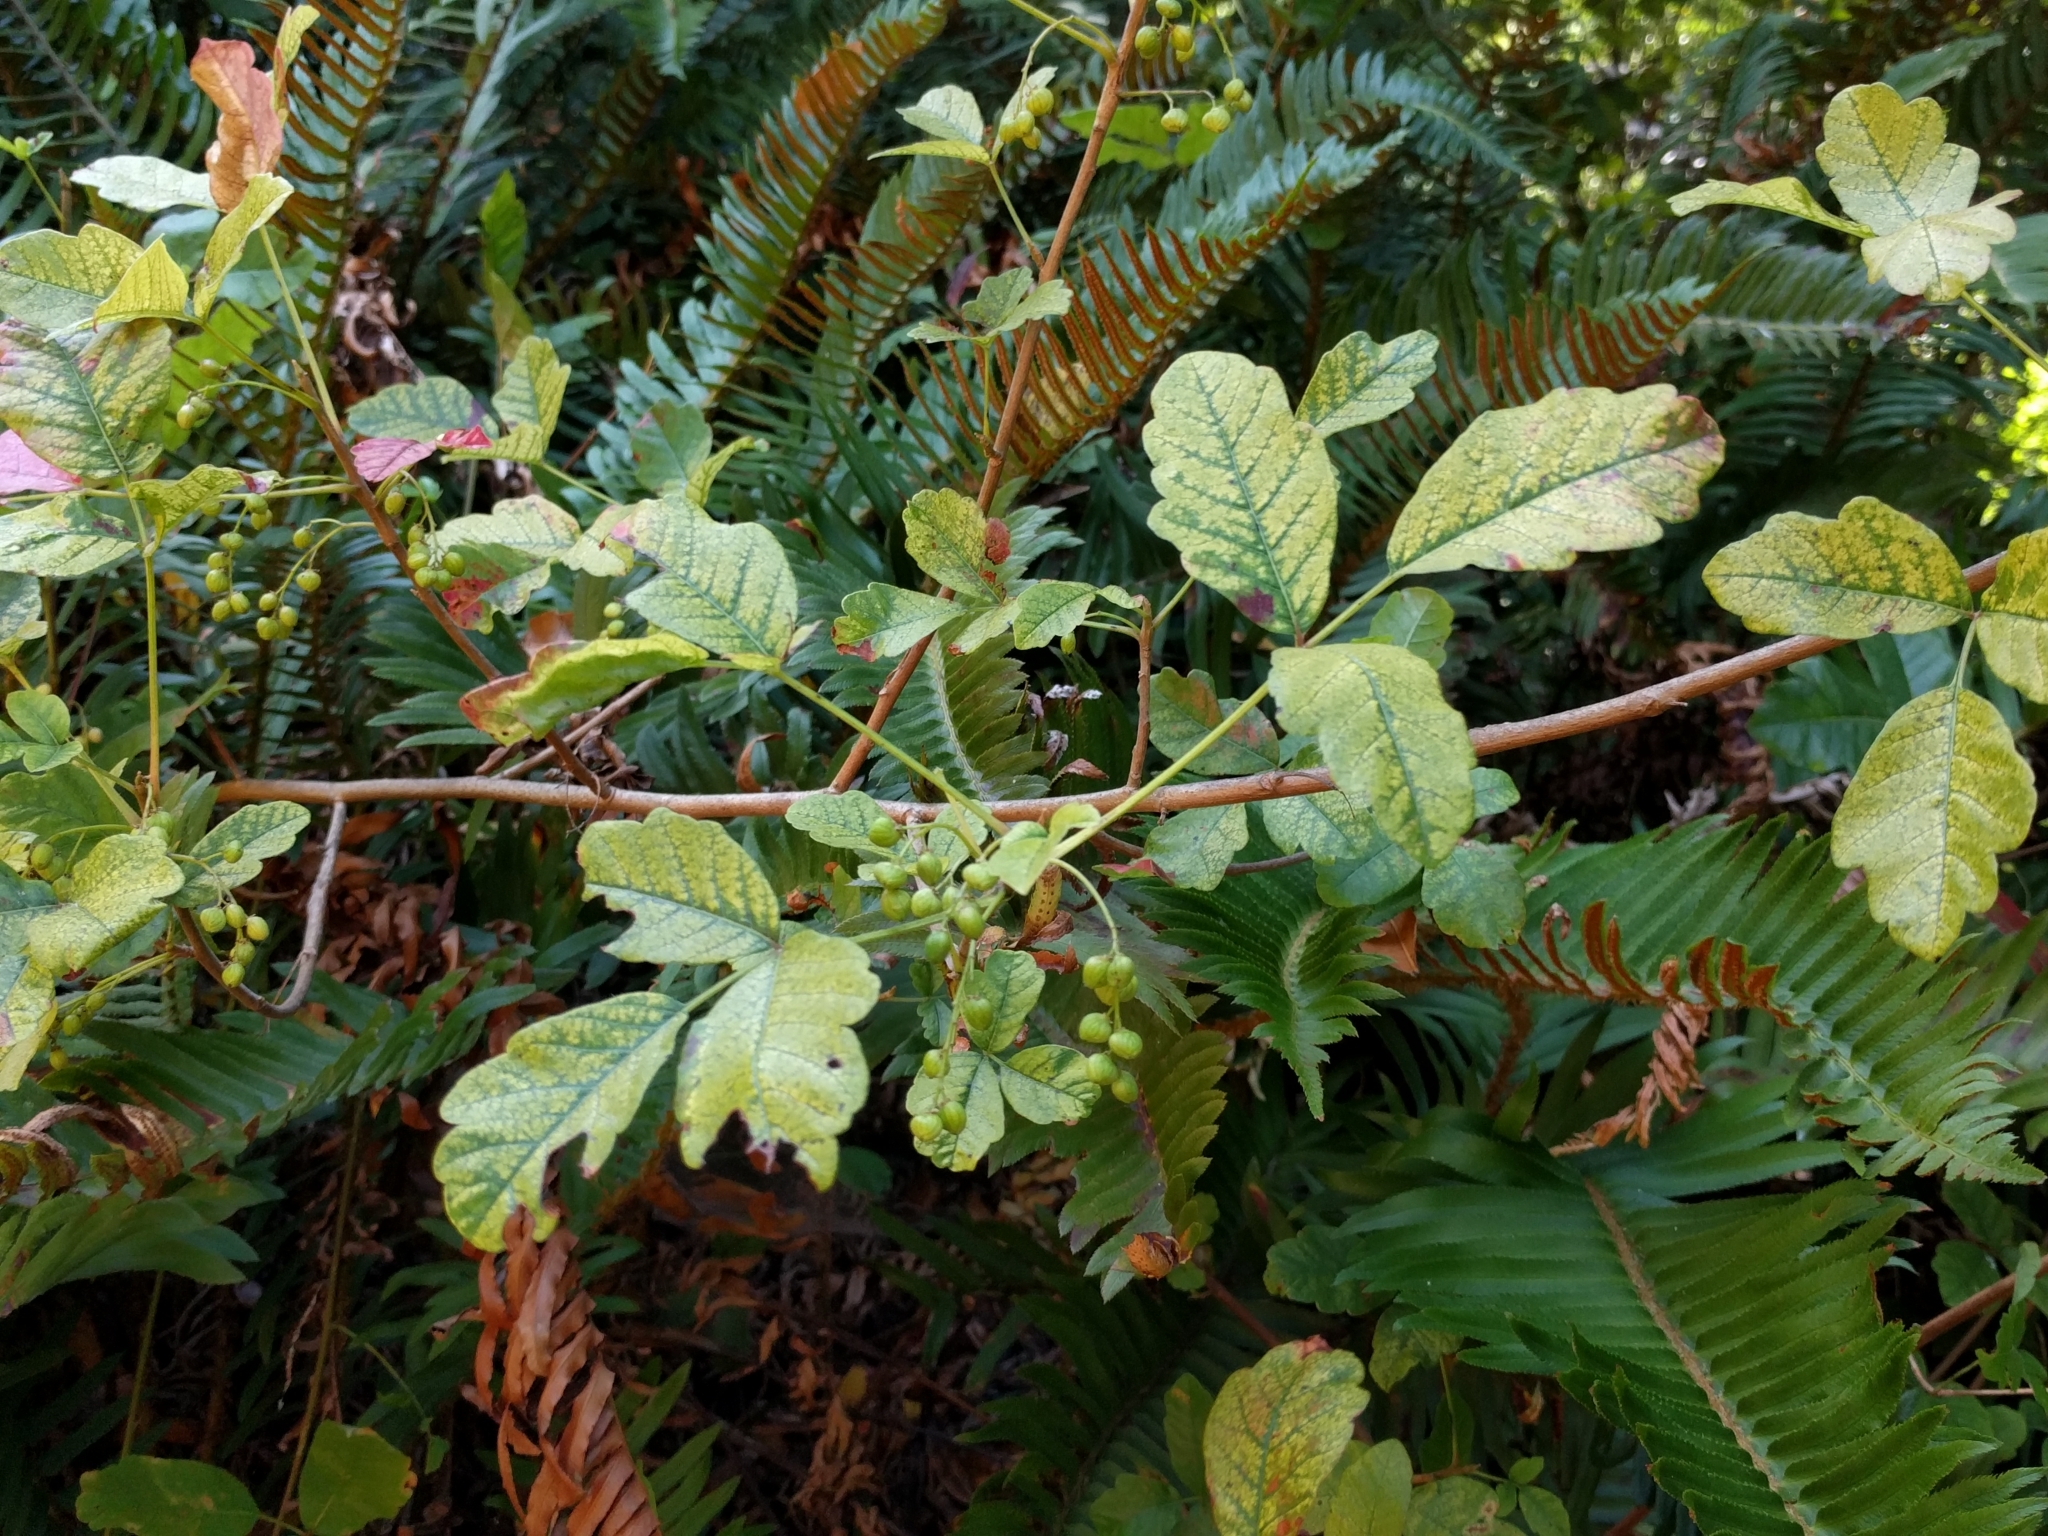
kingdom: Plantae
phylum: Tracheophyta
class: Magnoliopsida
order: Sapindales
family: Anacardiaceae
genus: Toxicodendron
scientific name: Toxicodendron diversilobum
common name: Pacific poison-oak
